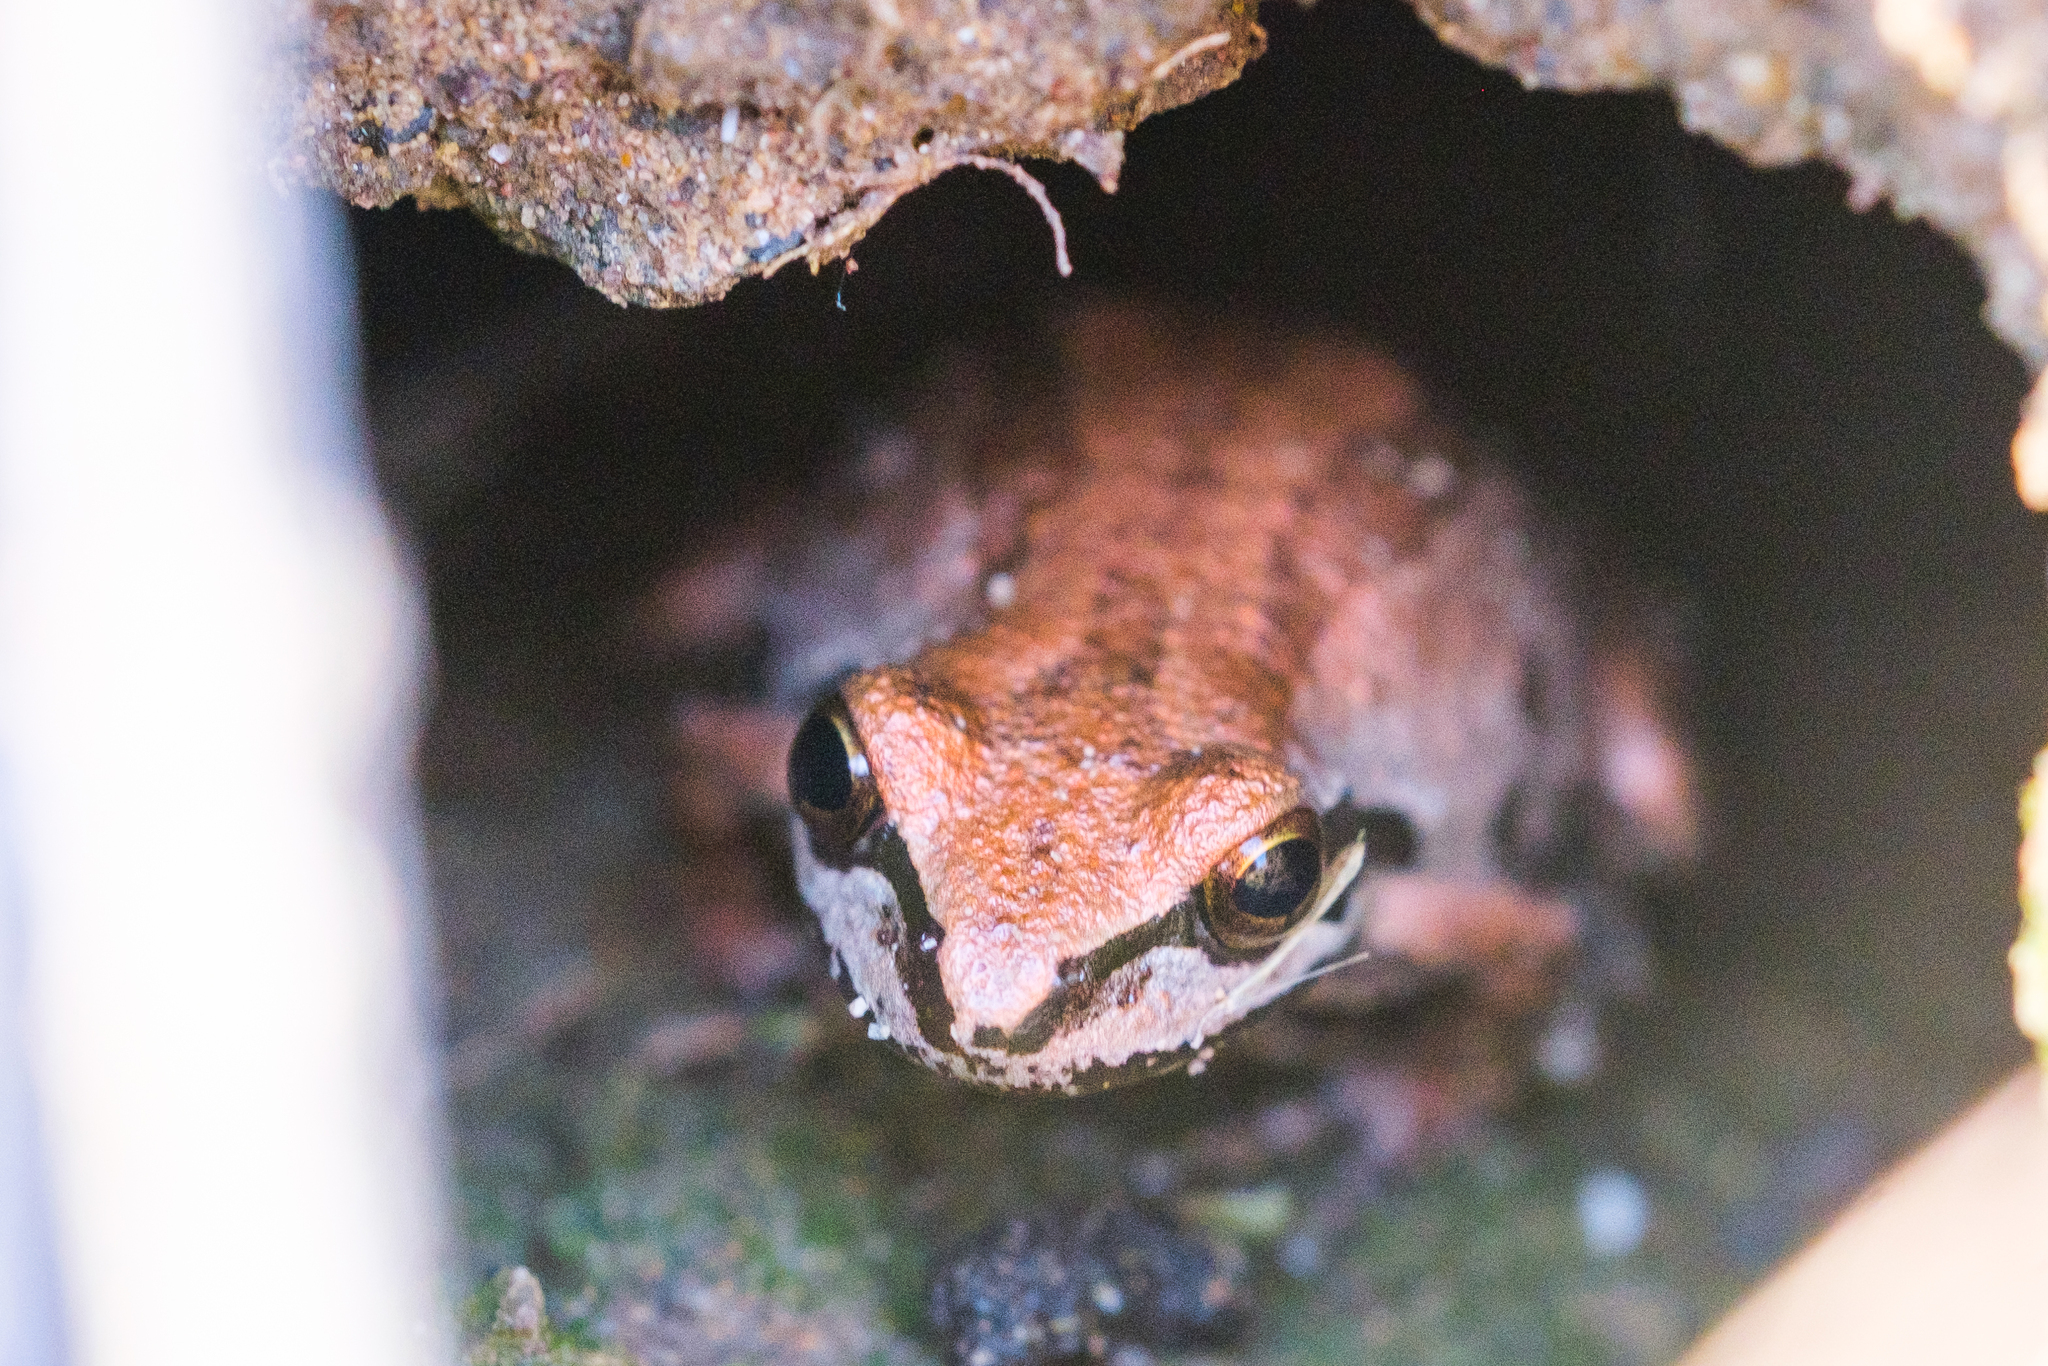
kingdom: Animalia
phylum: Chordata
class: Amphibia
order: Anura
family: Hylidae
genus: Pseudacris
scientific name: Pseudacris regilla
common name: Pacific chorus frog
